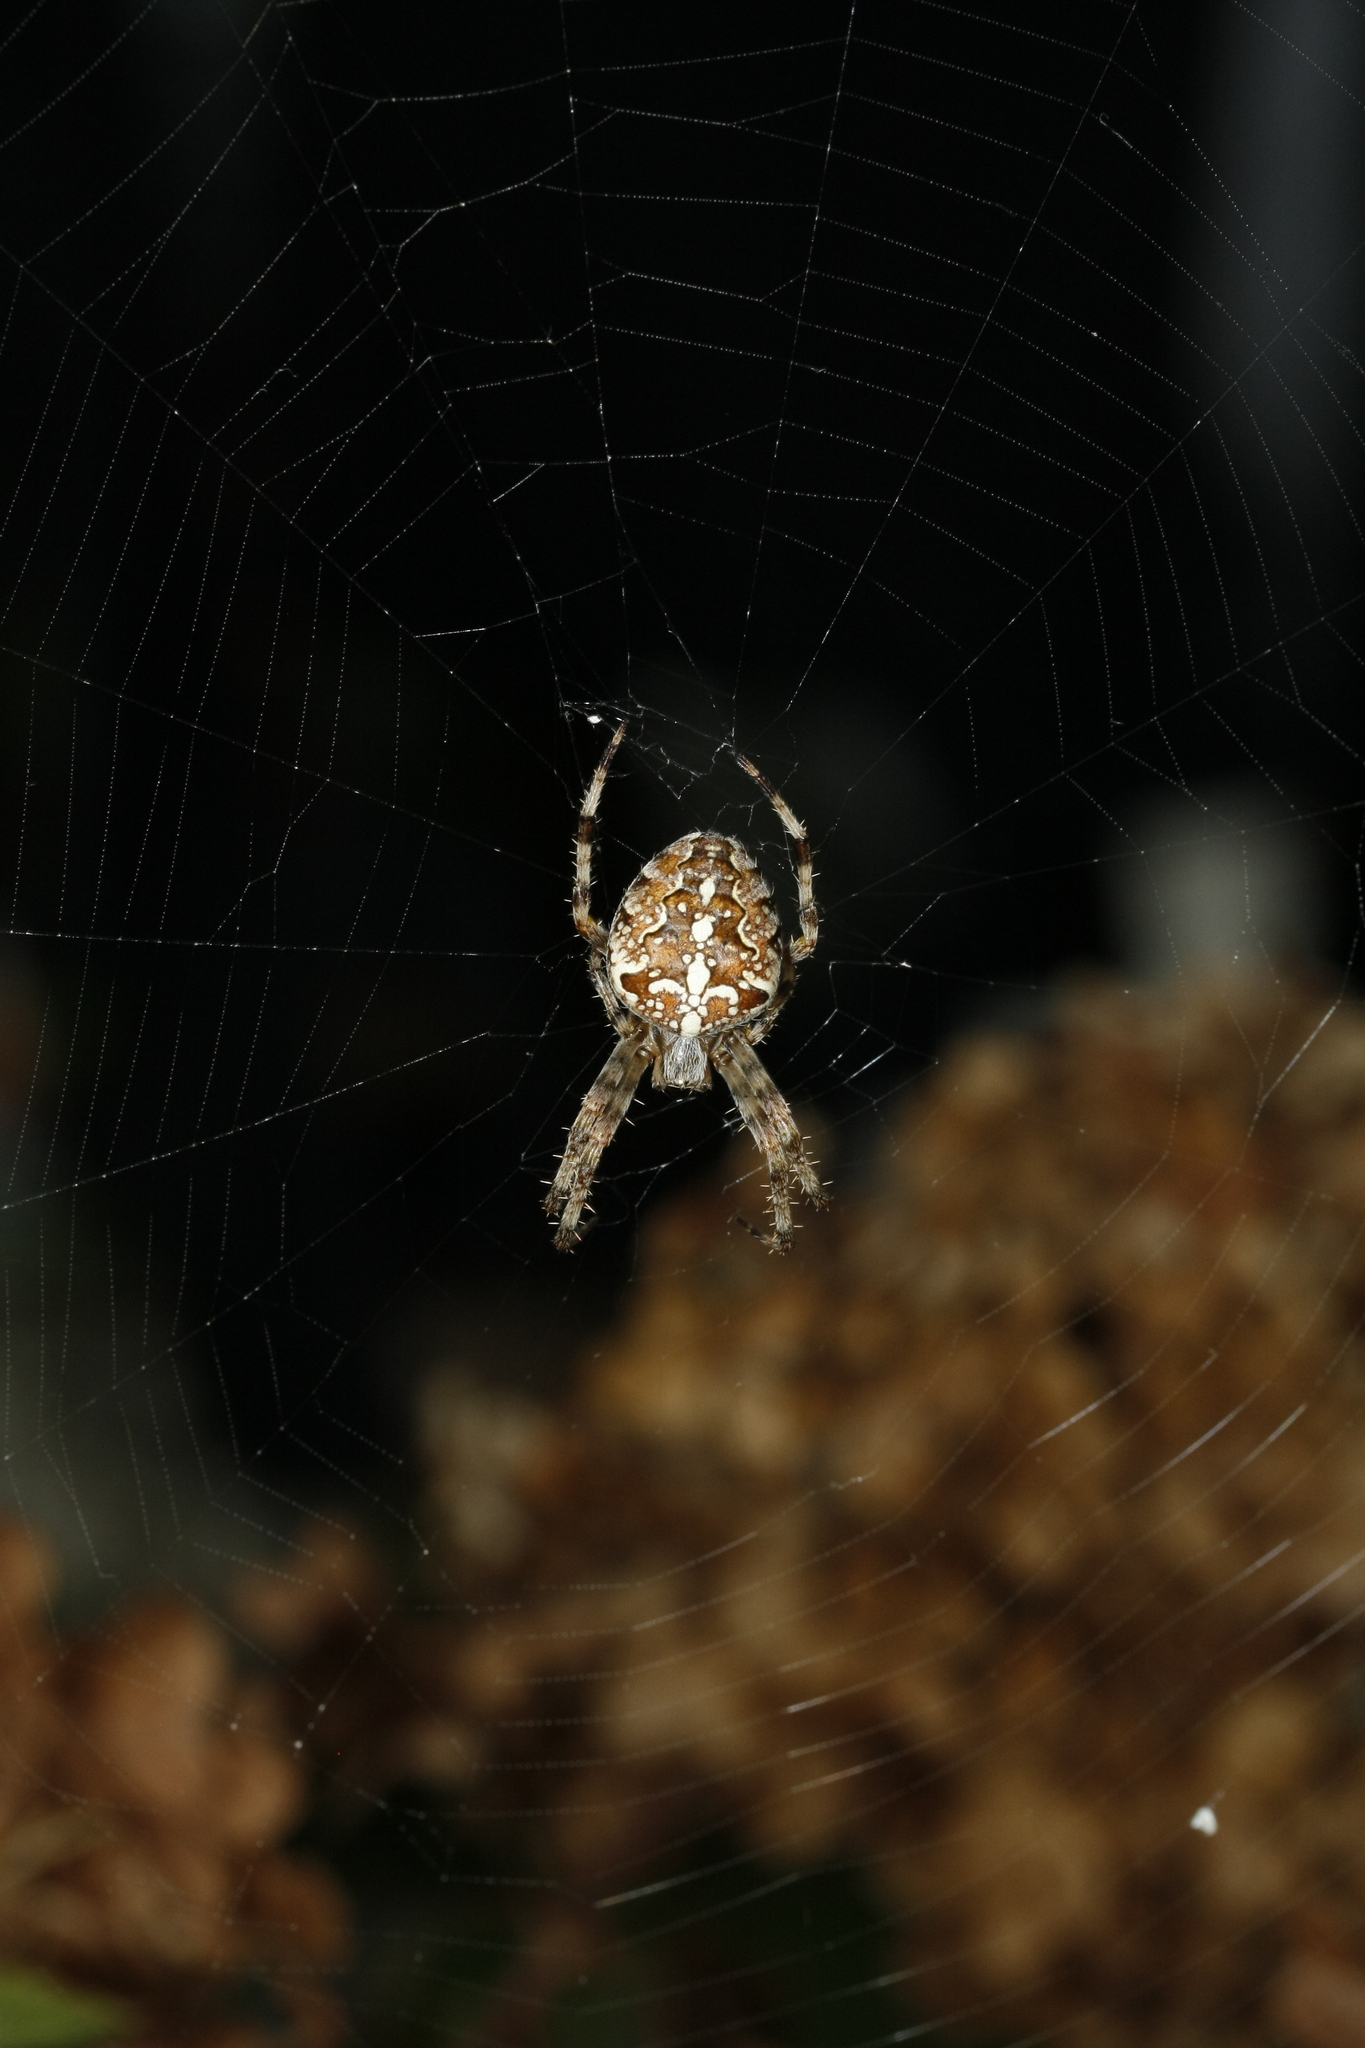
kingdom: Animalia
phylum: Arthropoda
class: Arachnida
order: Araneae
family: Araneidae
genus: Araneus
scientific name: Araneus diadematus
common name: Cross orbweaver
